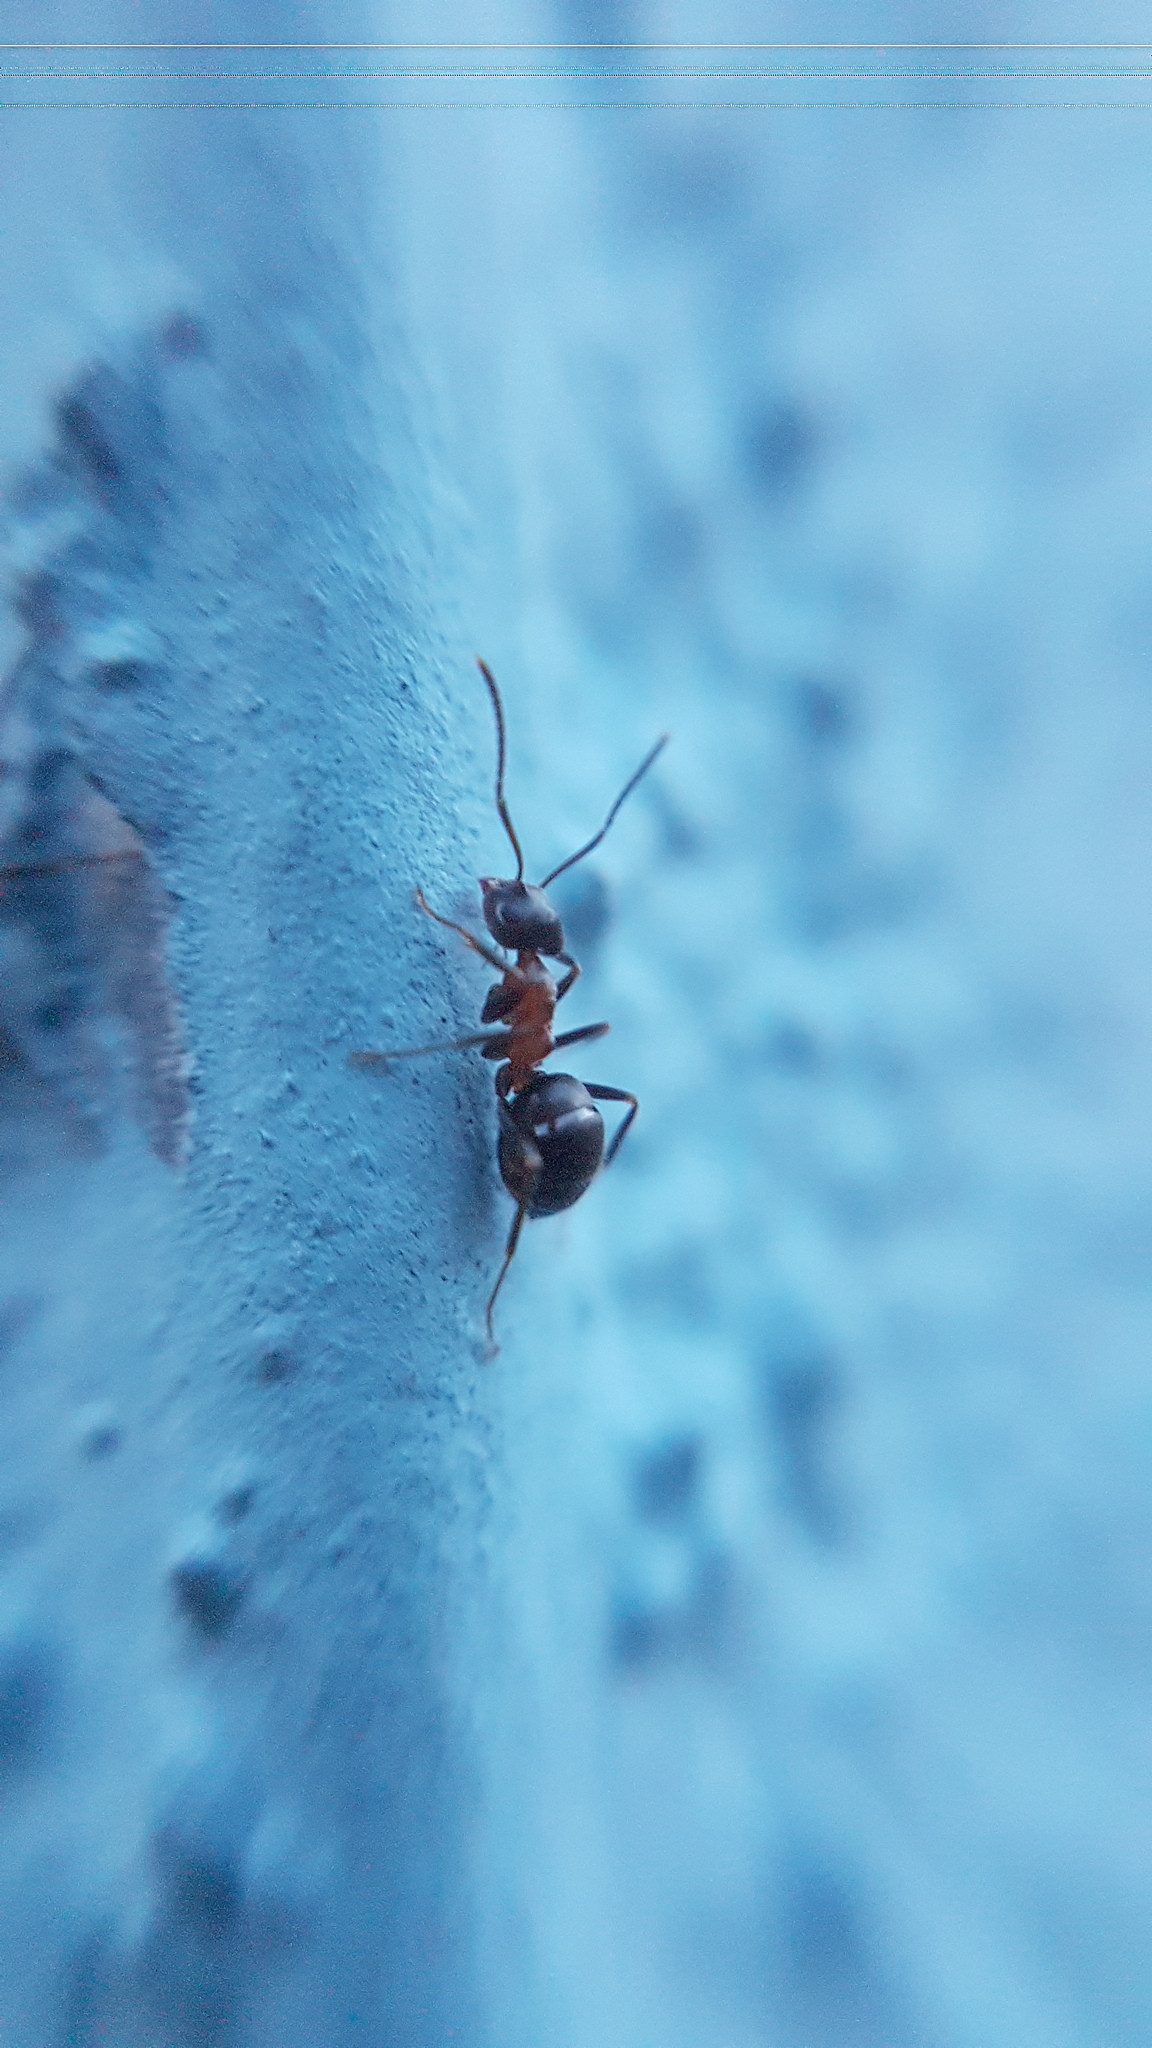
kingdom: Animalia
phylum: Arthropoda
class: Insecta
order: Hymenoptera
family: Formicidae
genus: Lasius
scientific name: Lasius emarginatus
